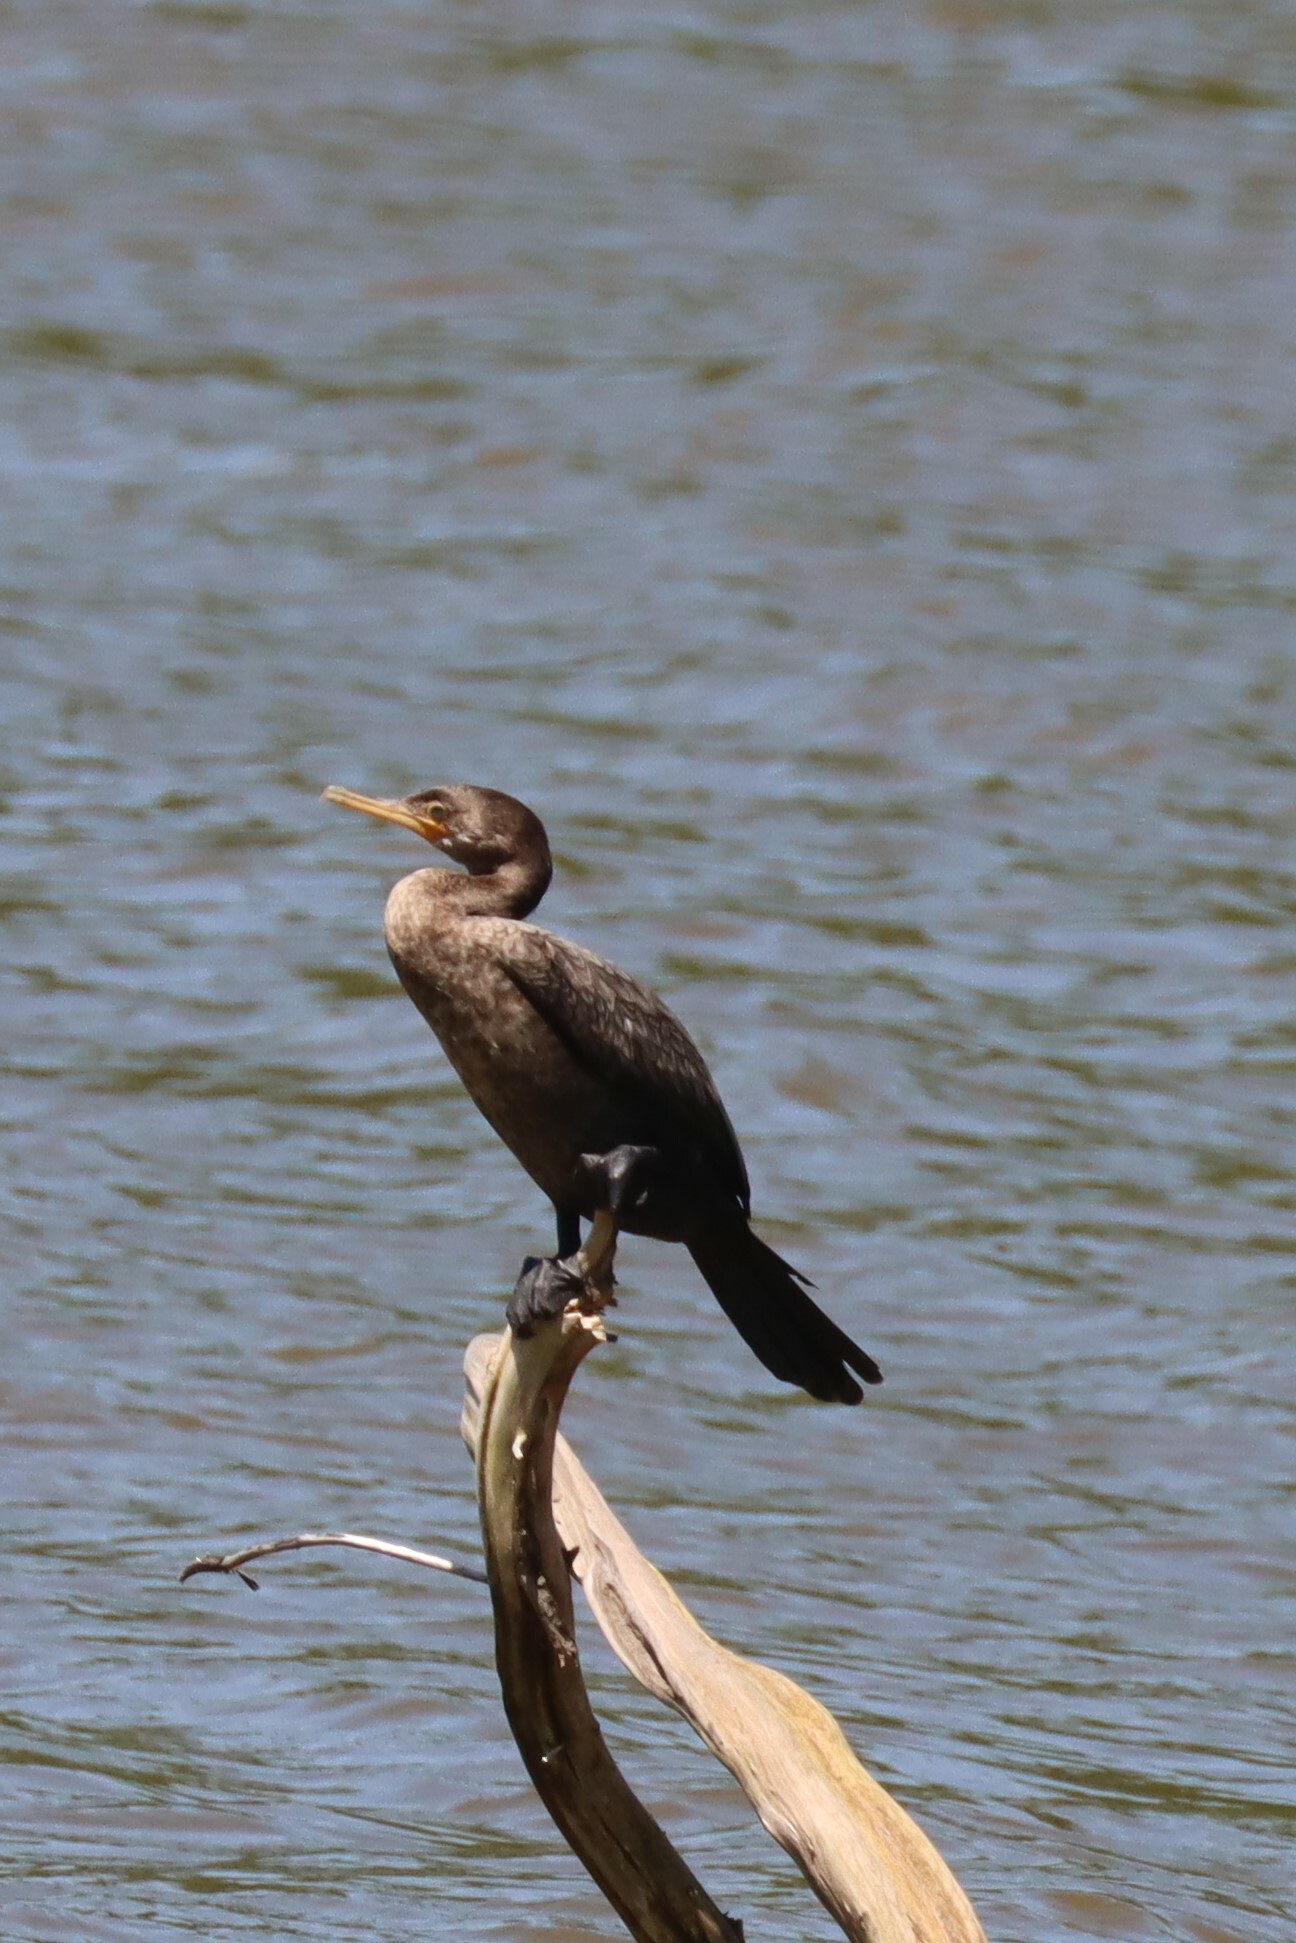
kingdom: Animalia
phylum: Chordata
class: Aves
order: Suliformes
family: Phalacrocoracidae
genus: Phalacrocorax
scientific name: Phalacrocorax brasilianus
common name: Neotropic cormorant
